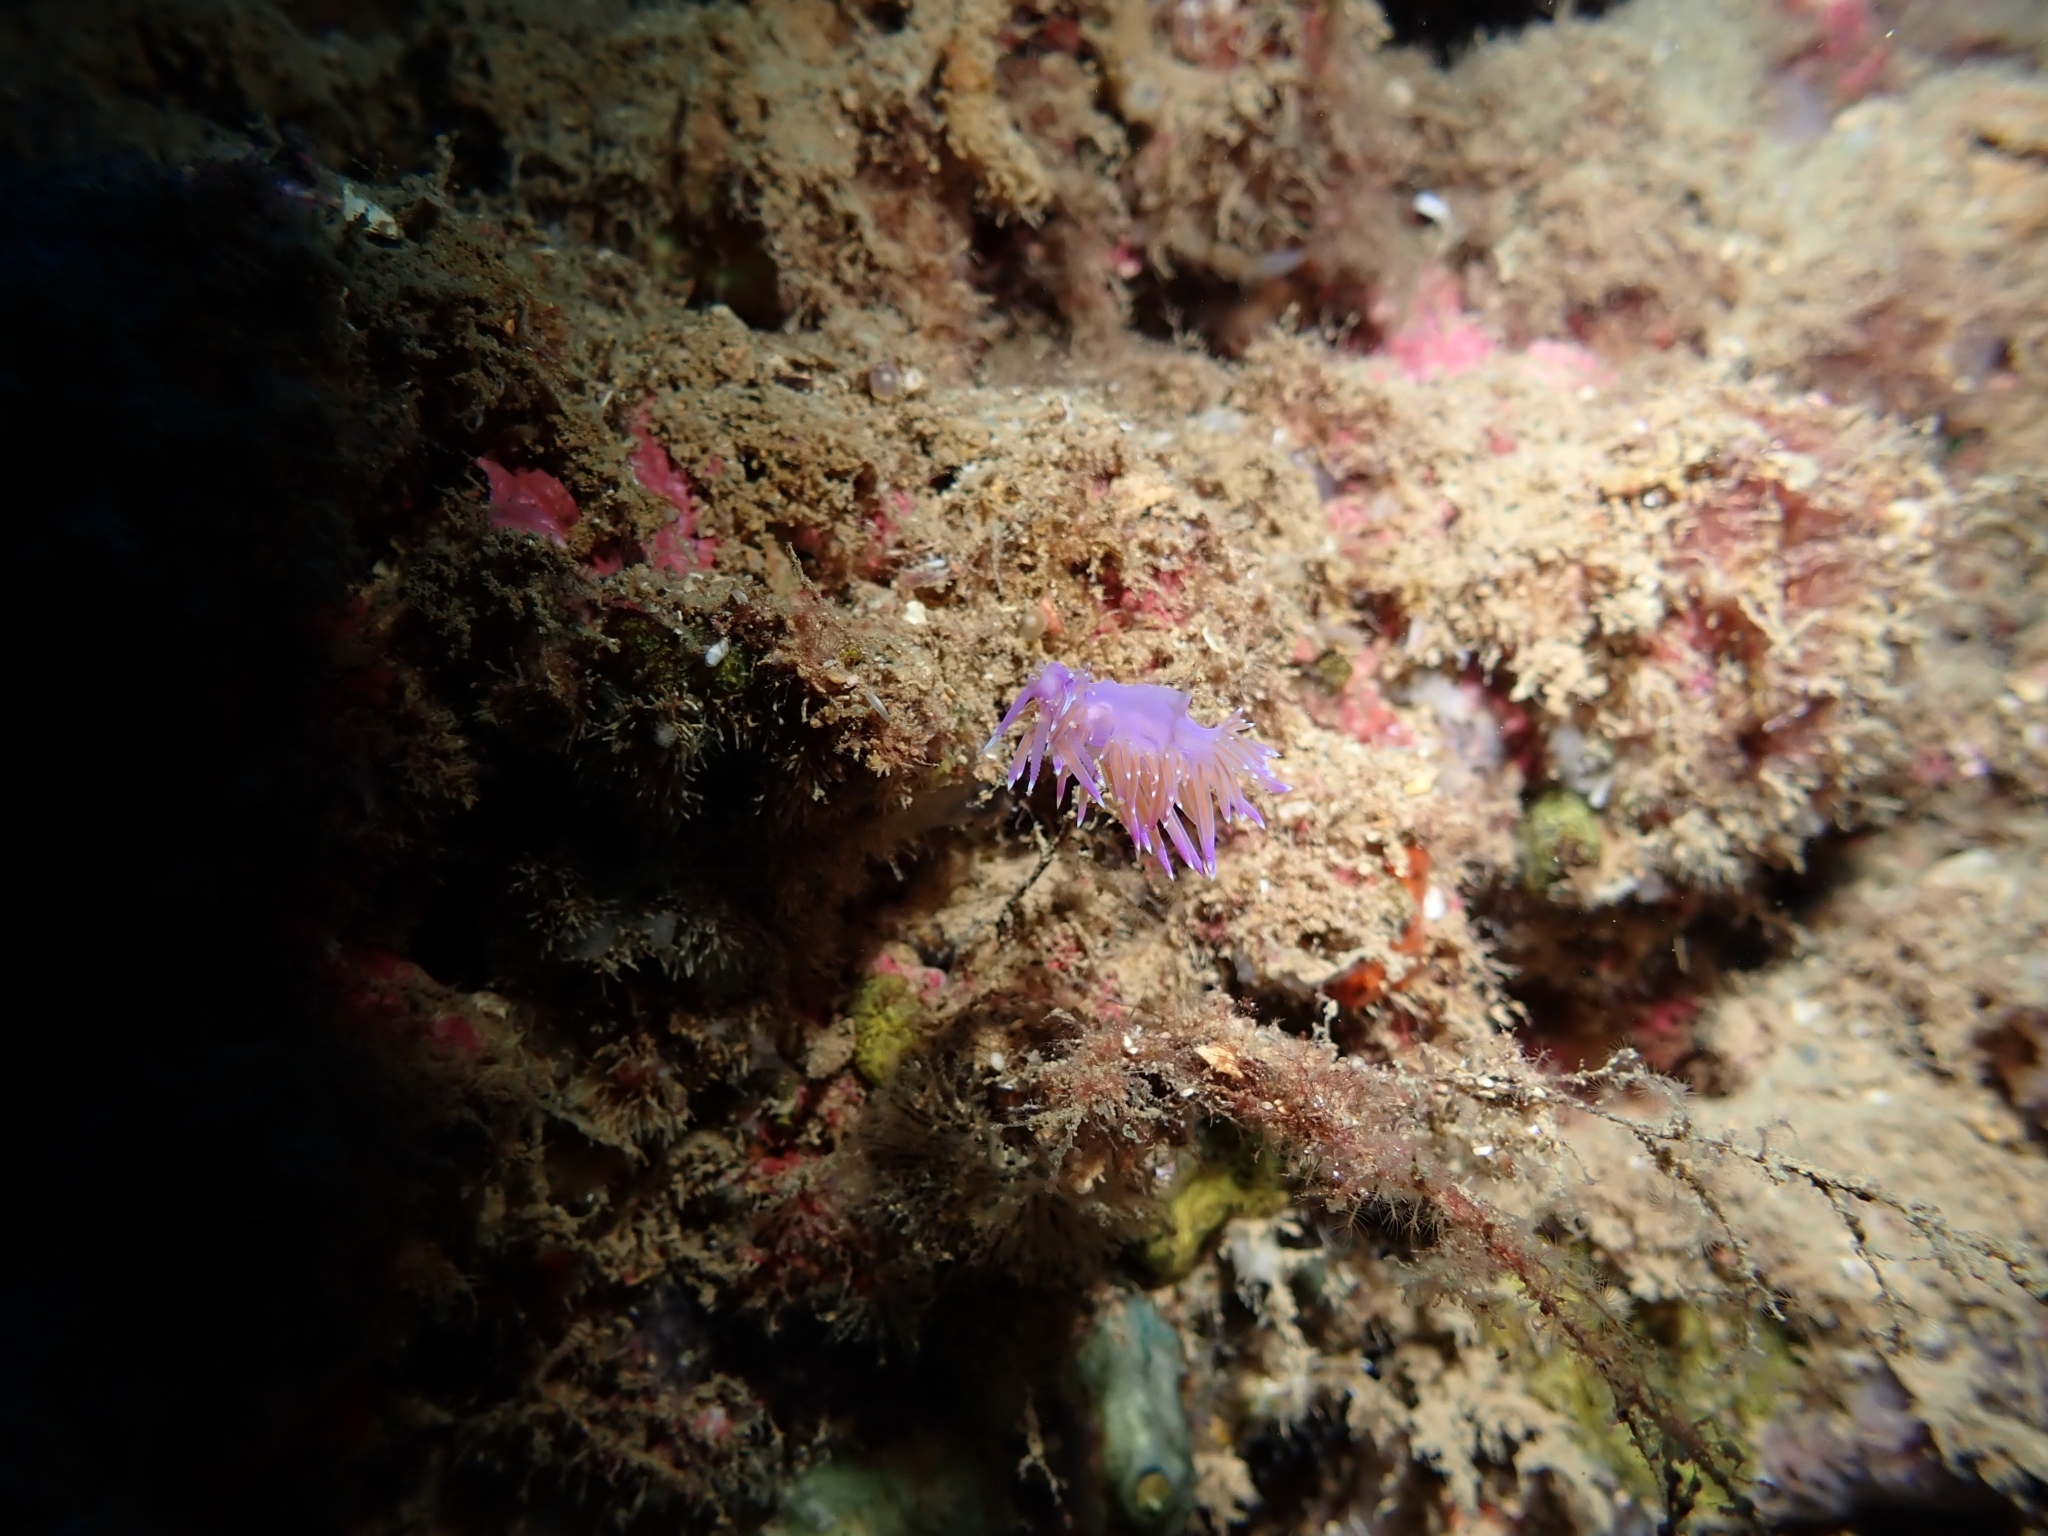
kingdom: Animalia
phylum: Mollusca
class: Gastropoda
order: Nudibranchia
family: Flabellinidae
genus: Flabellina
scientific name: Flabellina affinis
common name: Mediterranean violet aeolid
